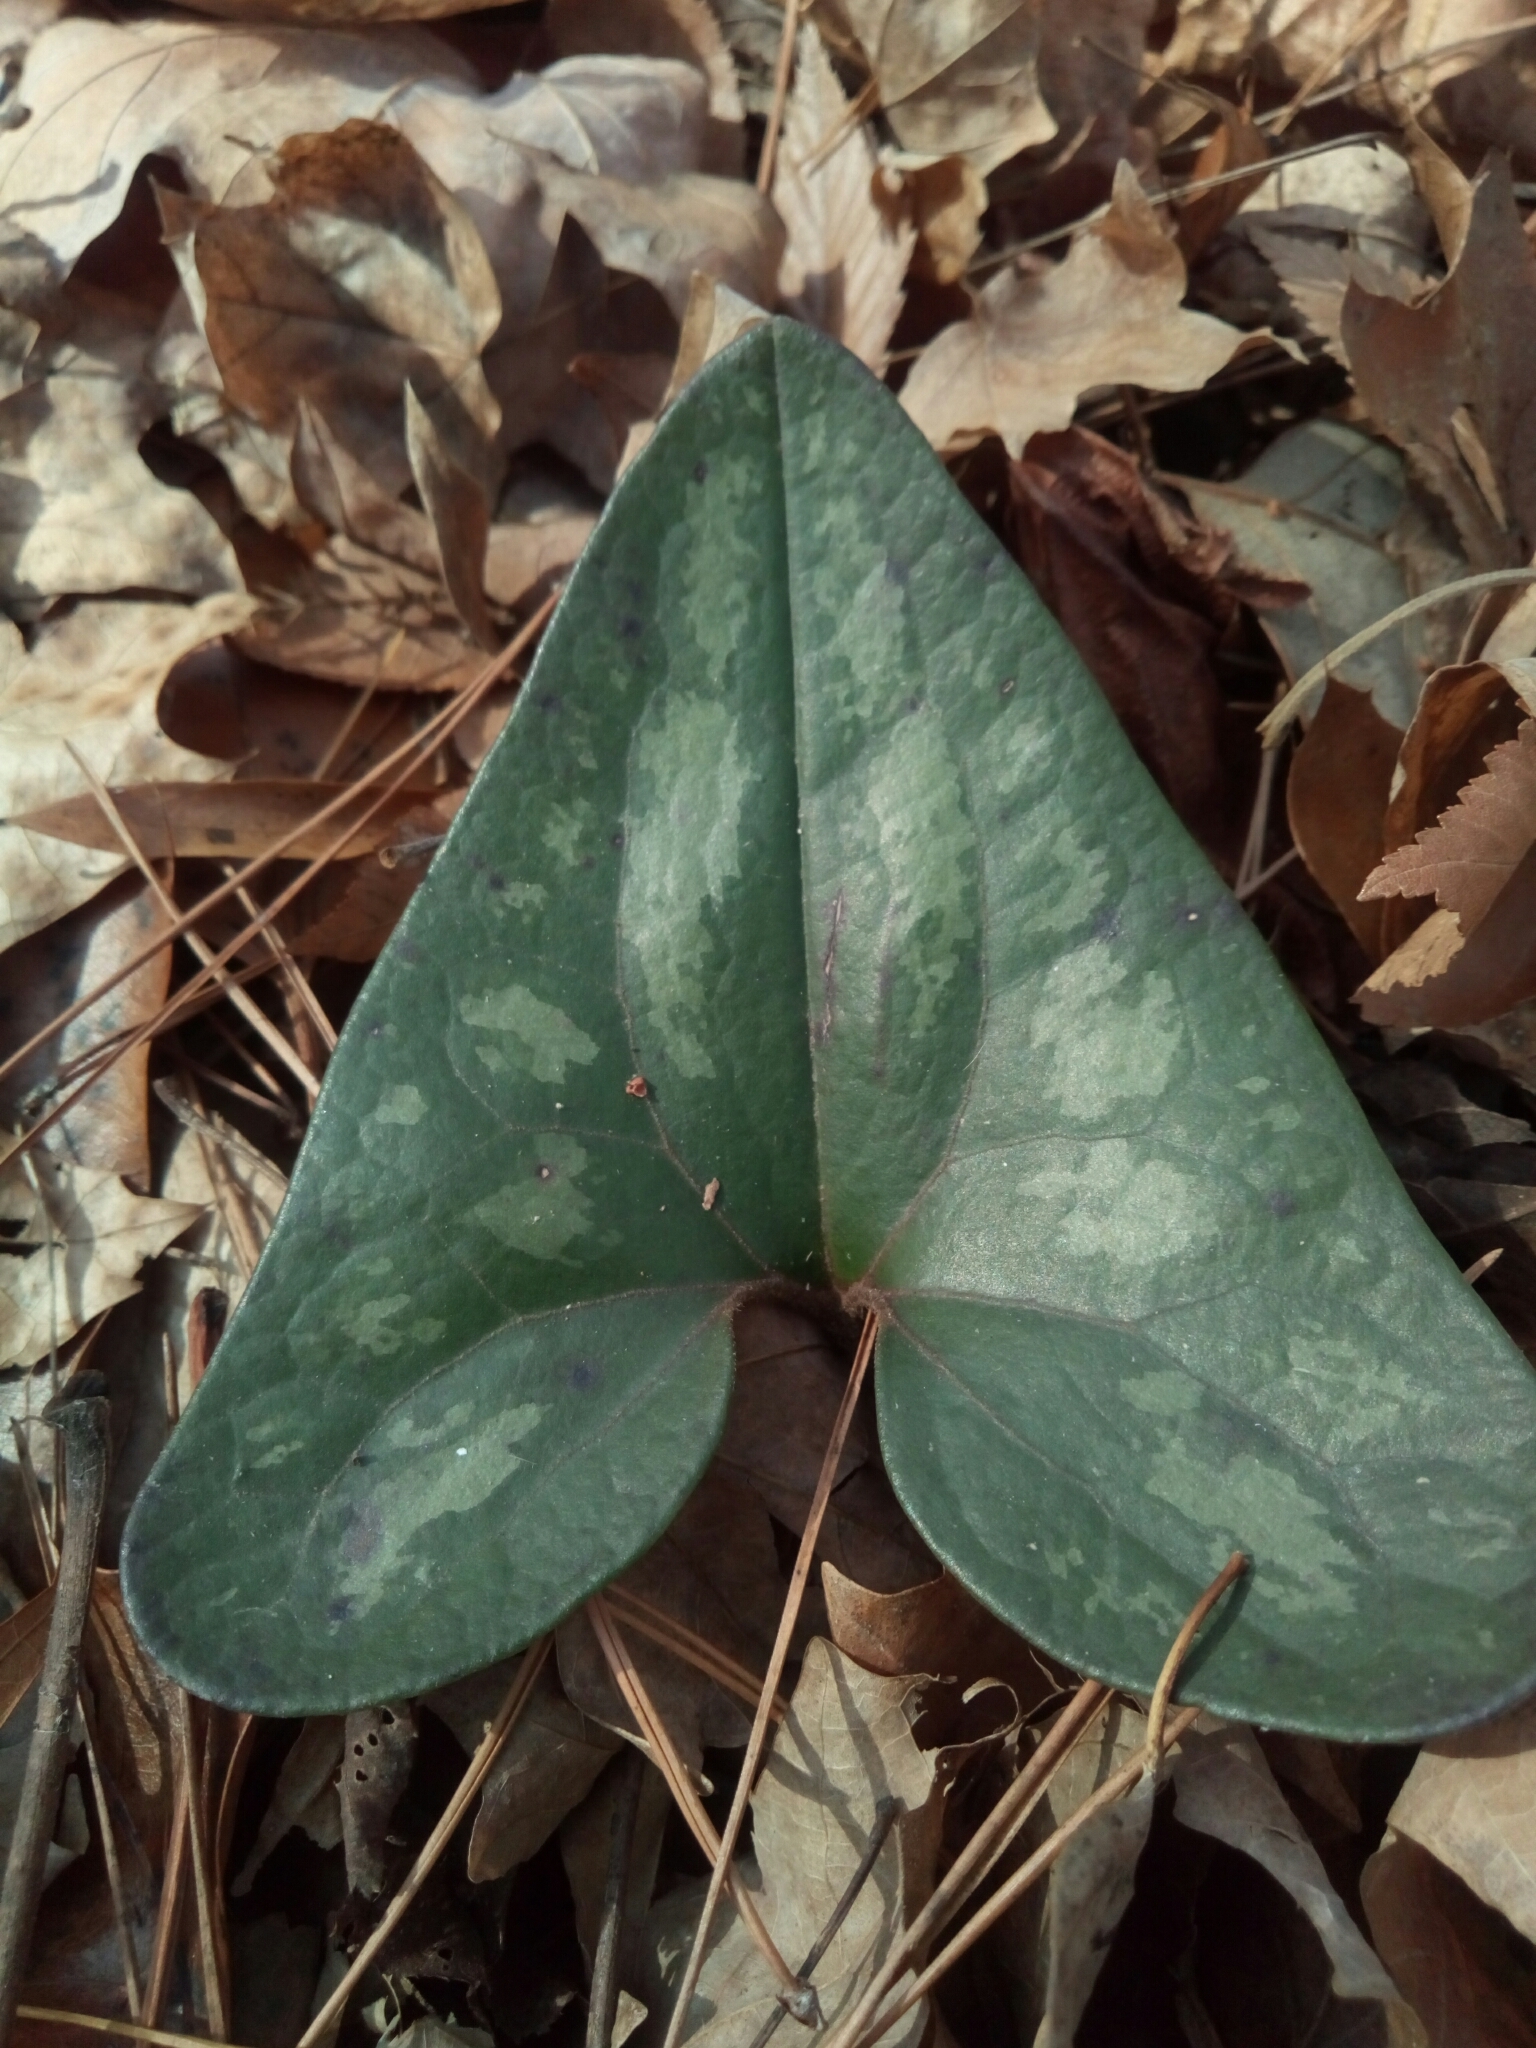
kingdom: Plantae
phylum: Tracheophyta
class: Magnoliopsida
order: Piperales
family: Aristolochiaceae
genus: Hexastylis
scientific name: Hexastylis arifolia
